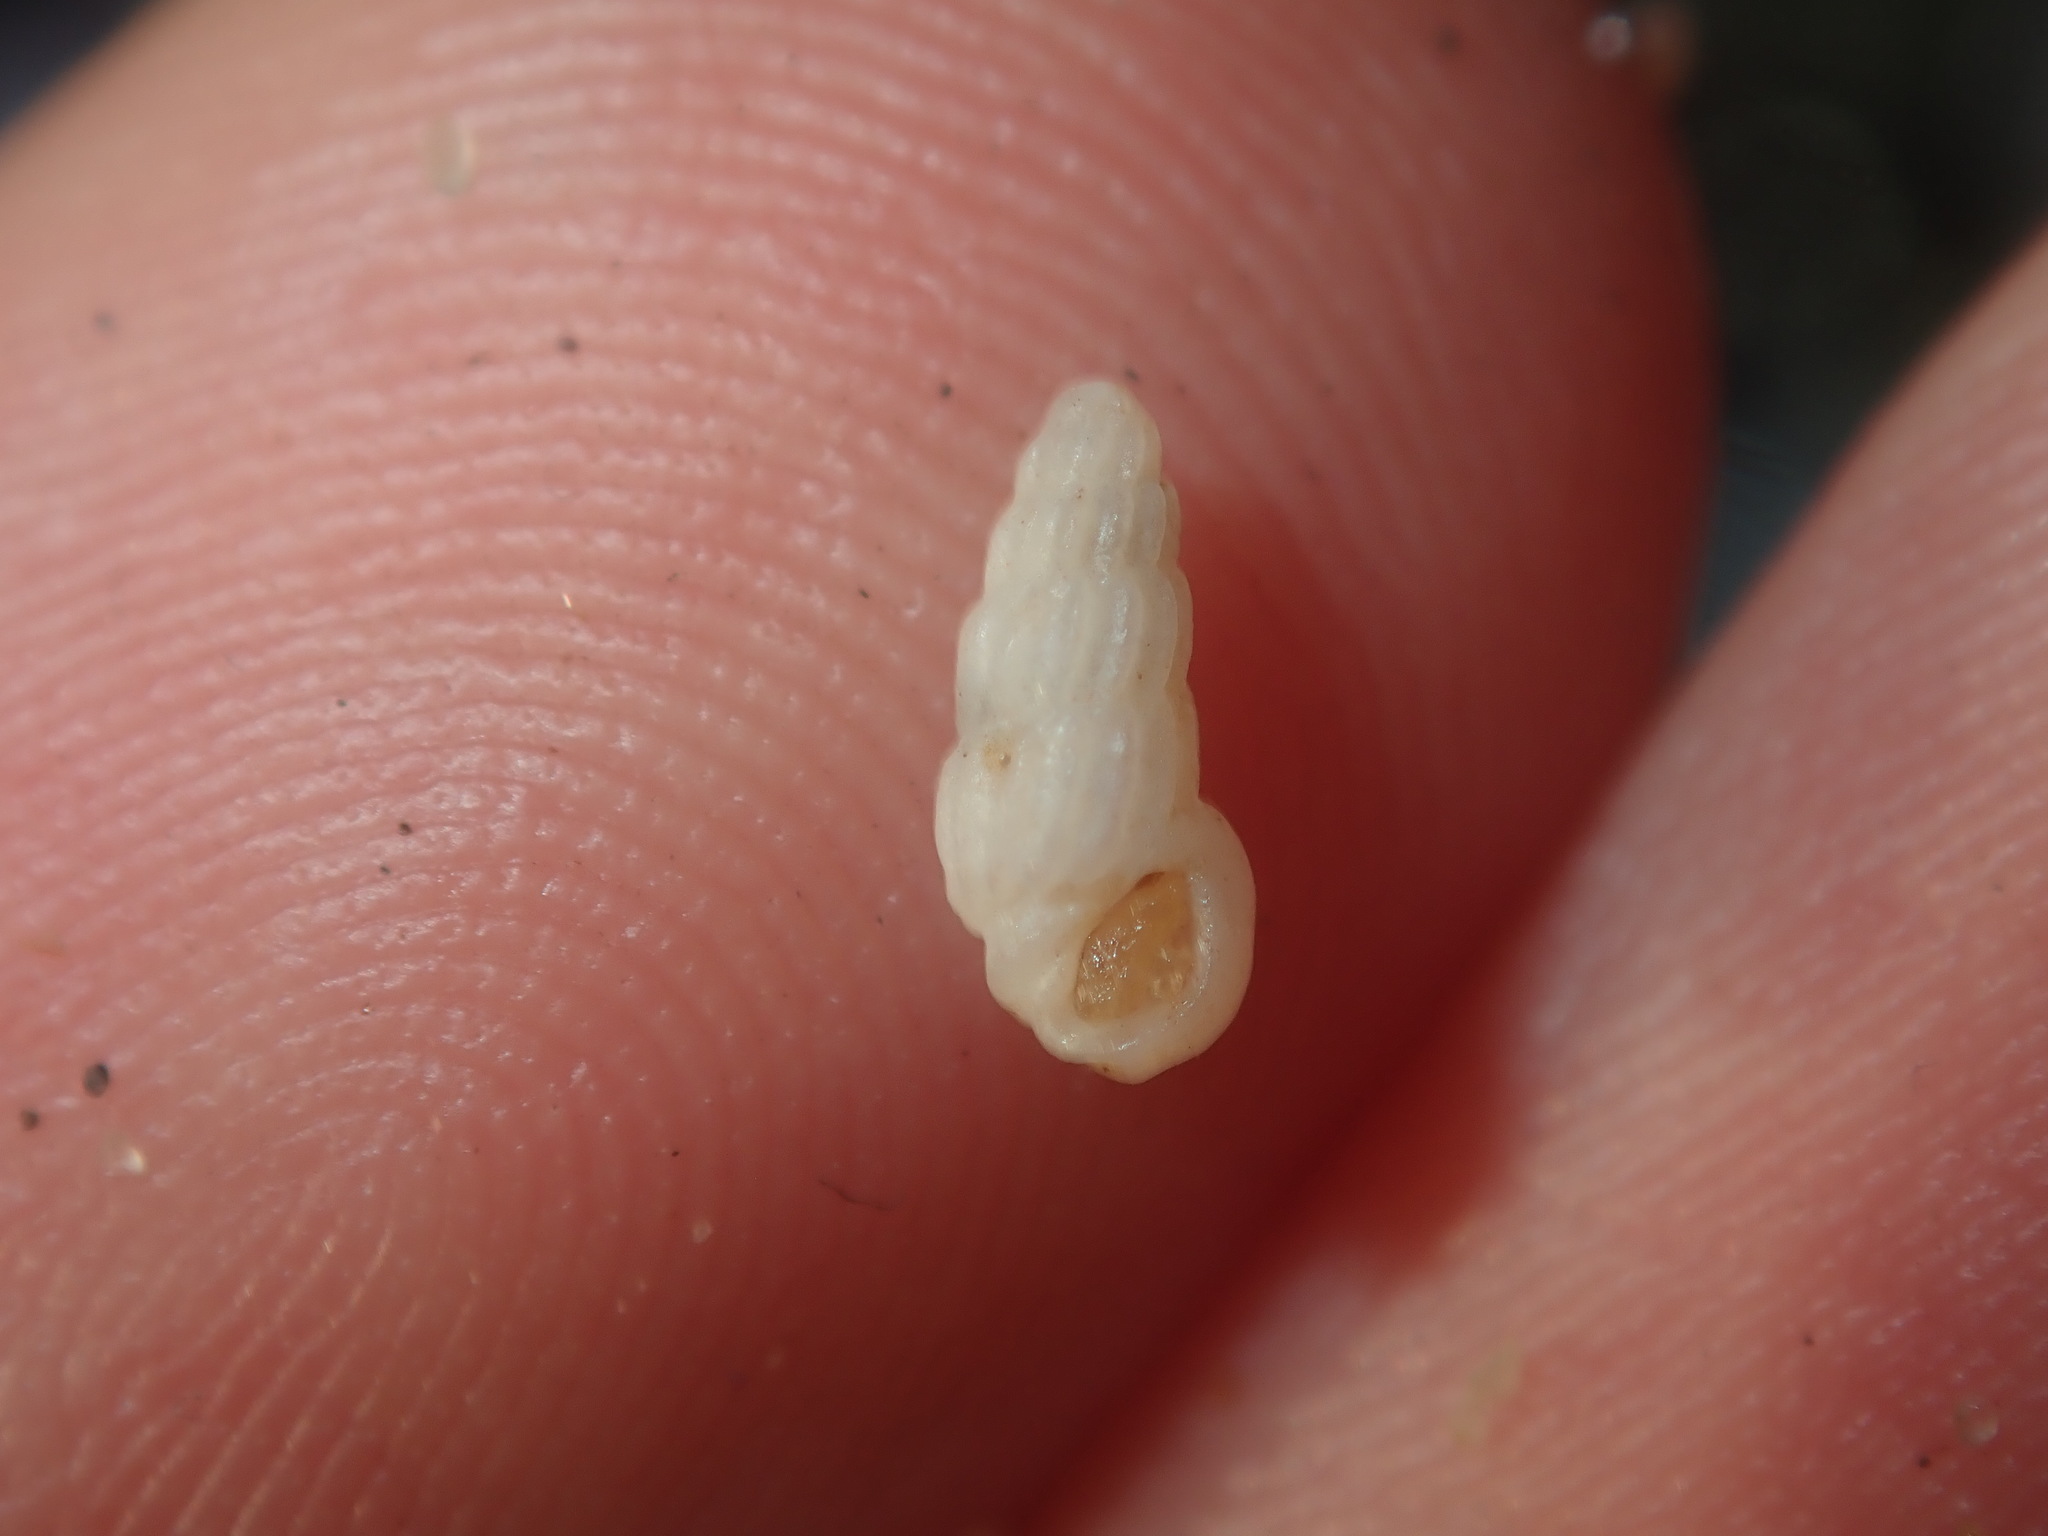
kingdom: Animalia
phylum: Mollusca
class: Gastropoda
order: Littorinimorpha
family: Rissoinidae
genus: Rissoina
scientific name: Rissoina hernandezi
